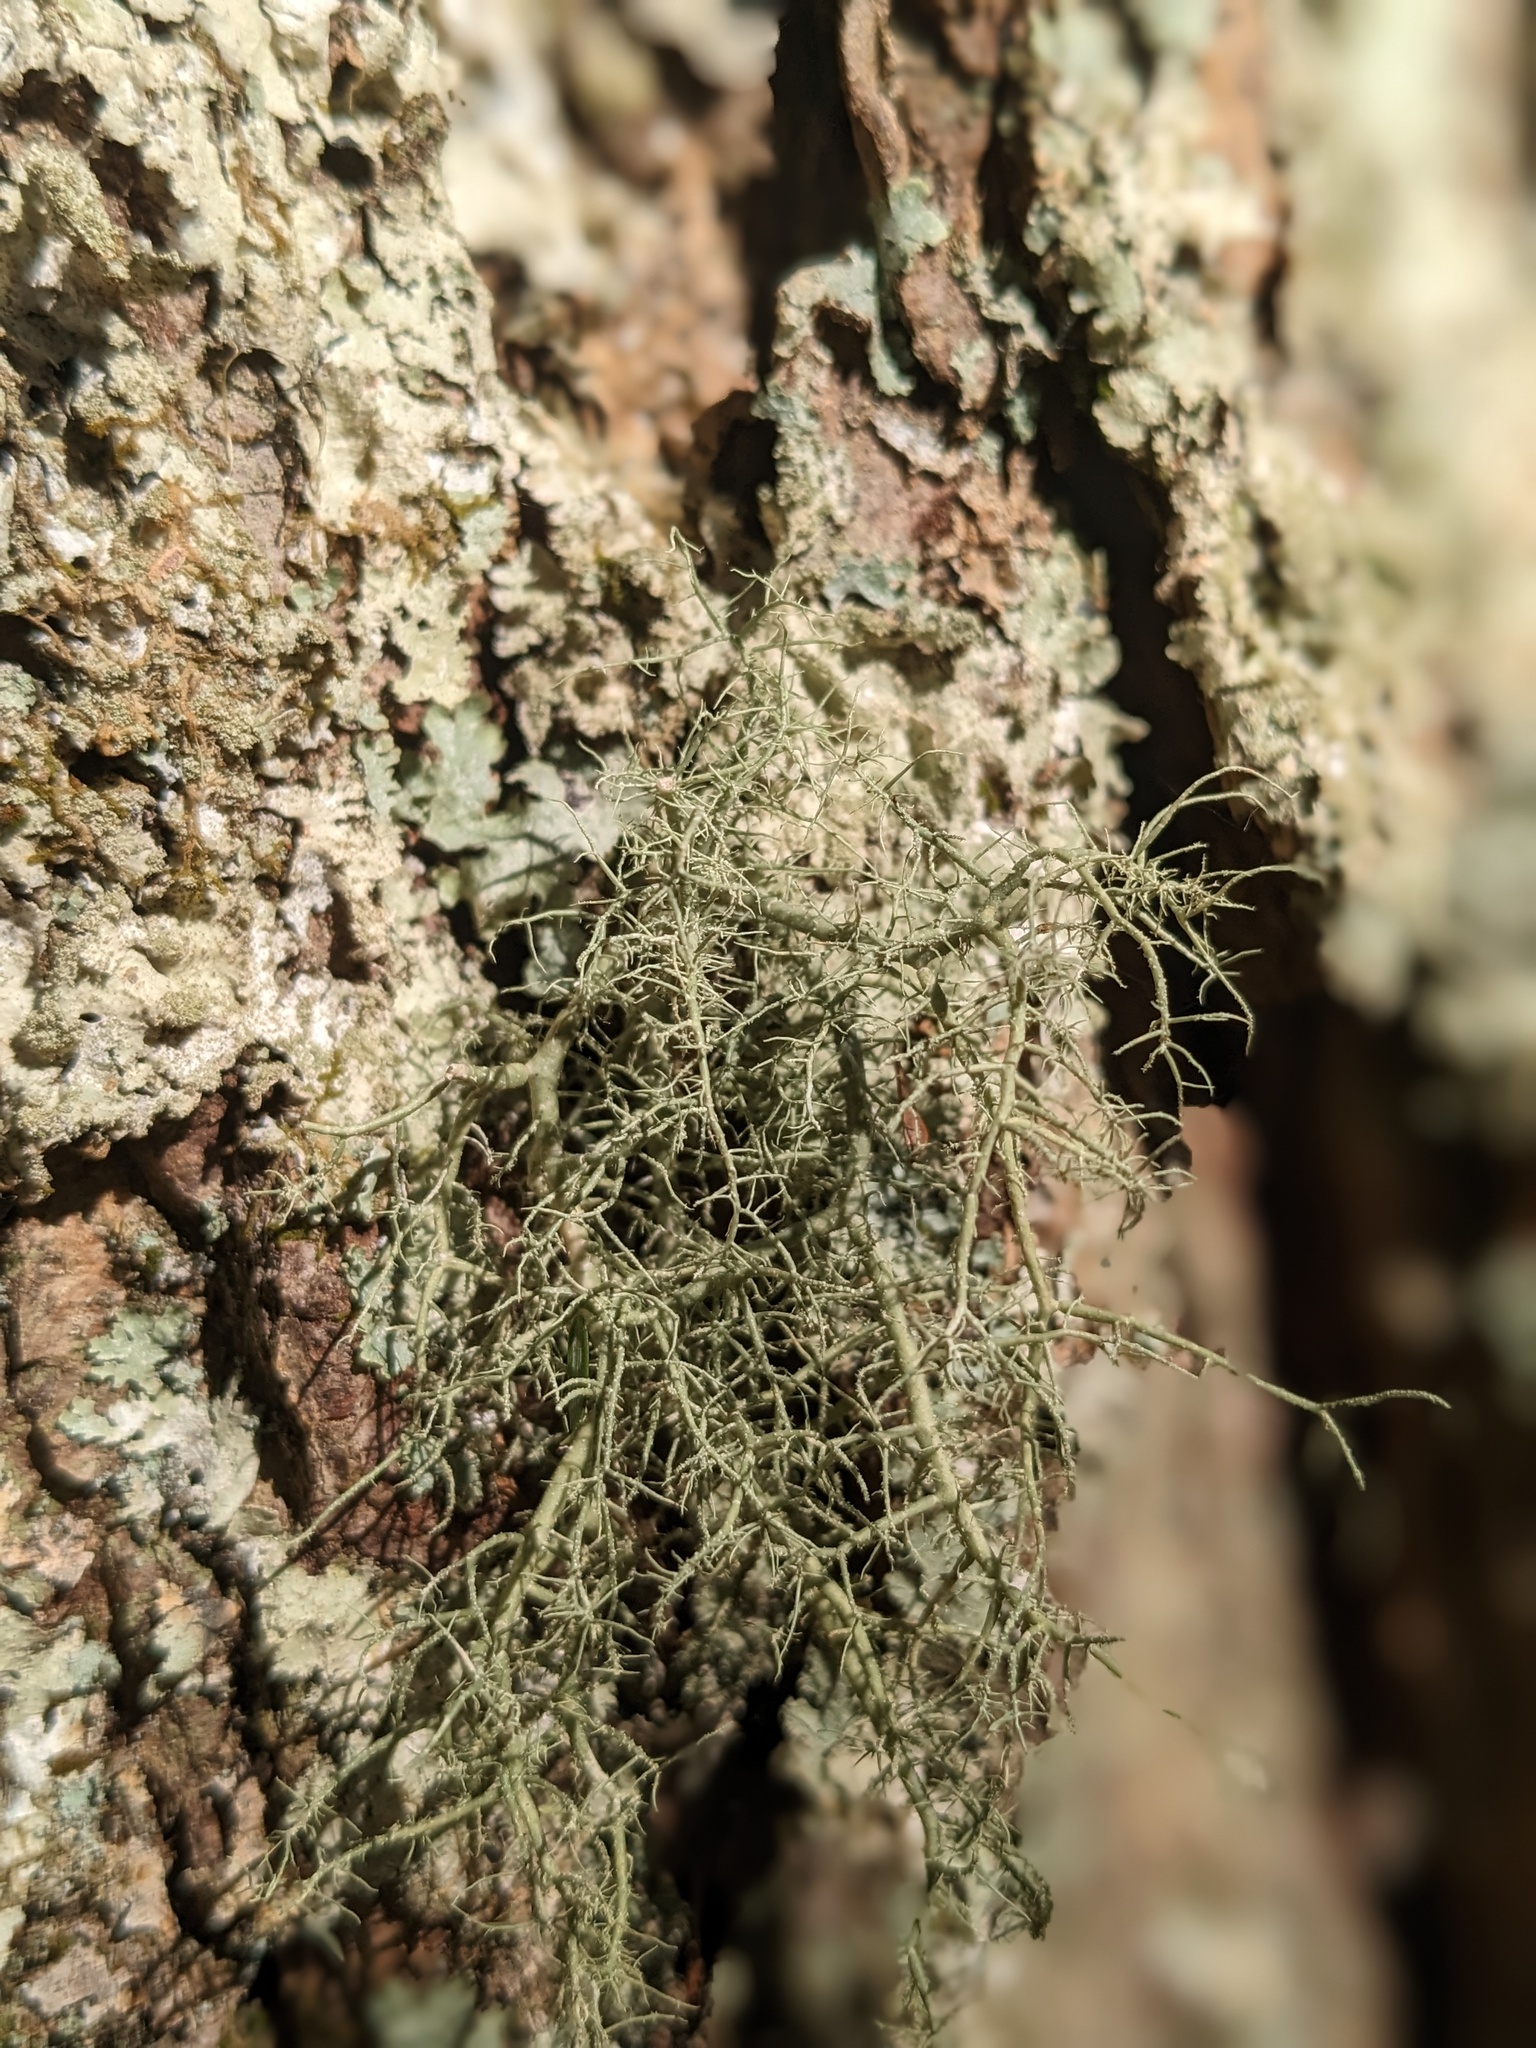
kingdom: Fungi
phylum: Ascomycota
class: Lecanoromycetes
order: Lecanorales
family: Parmeliaceae
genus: Usnea
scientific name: Usnea strigosa
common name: Bushy beard lichen
